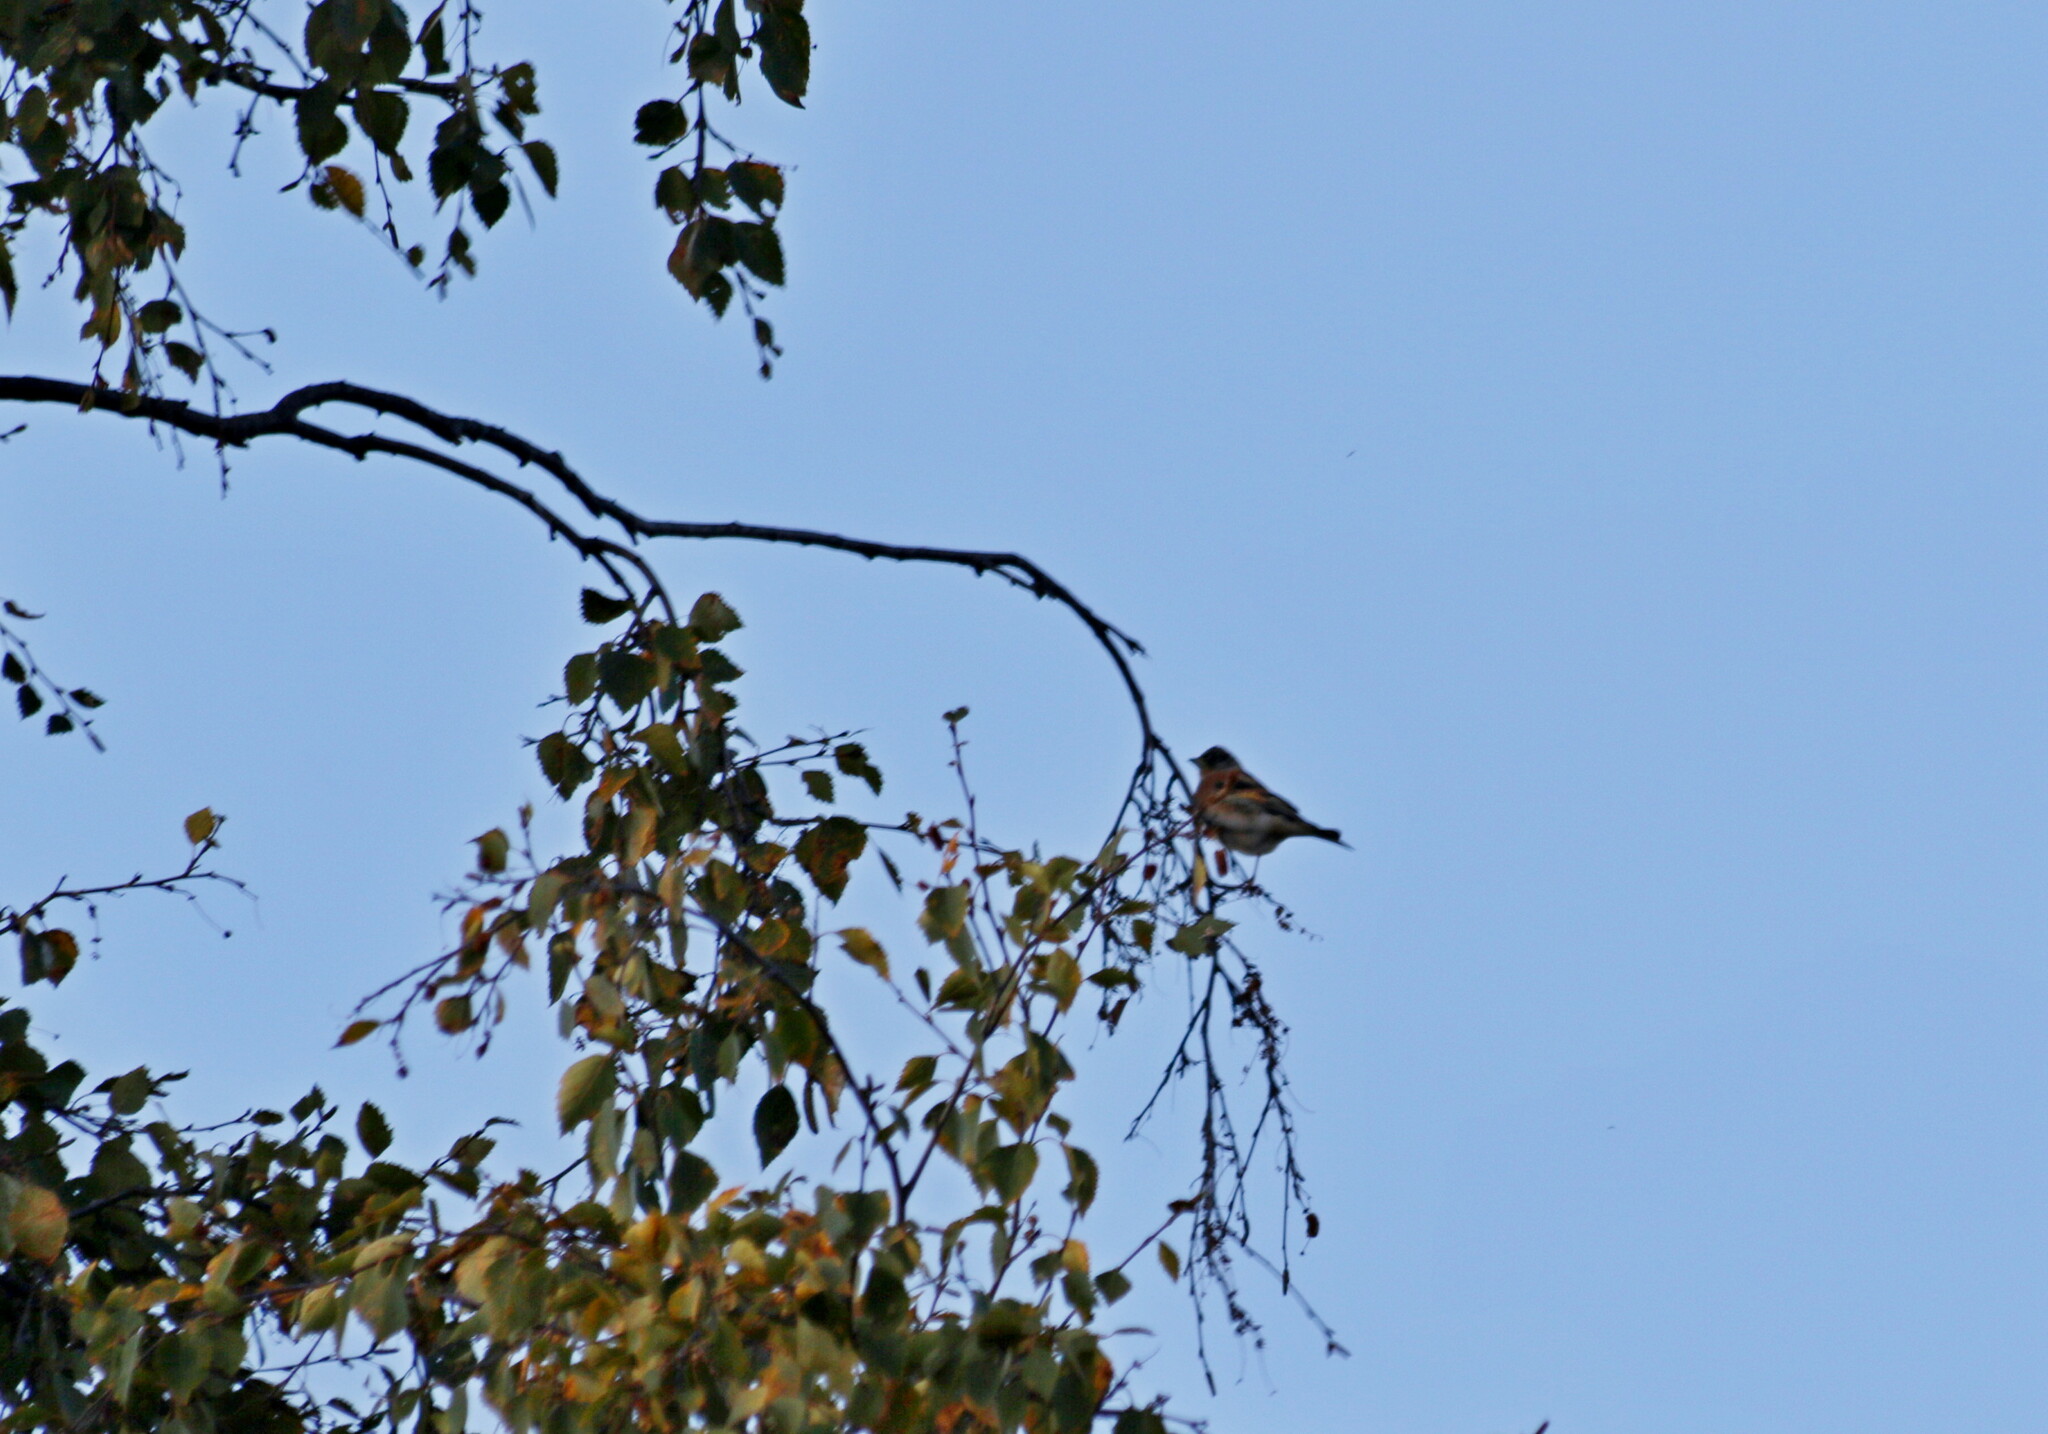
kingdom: Animalia
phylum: Chordata
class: Aves
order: Passeriformes
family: Fringillidae
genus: Fringilla
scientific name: Fringilla montifringilla
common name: Brambling
